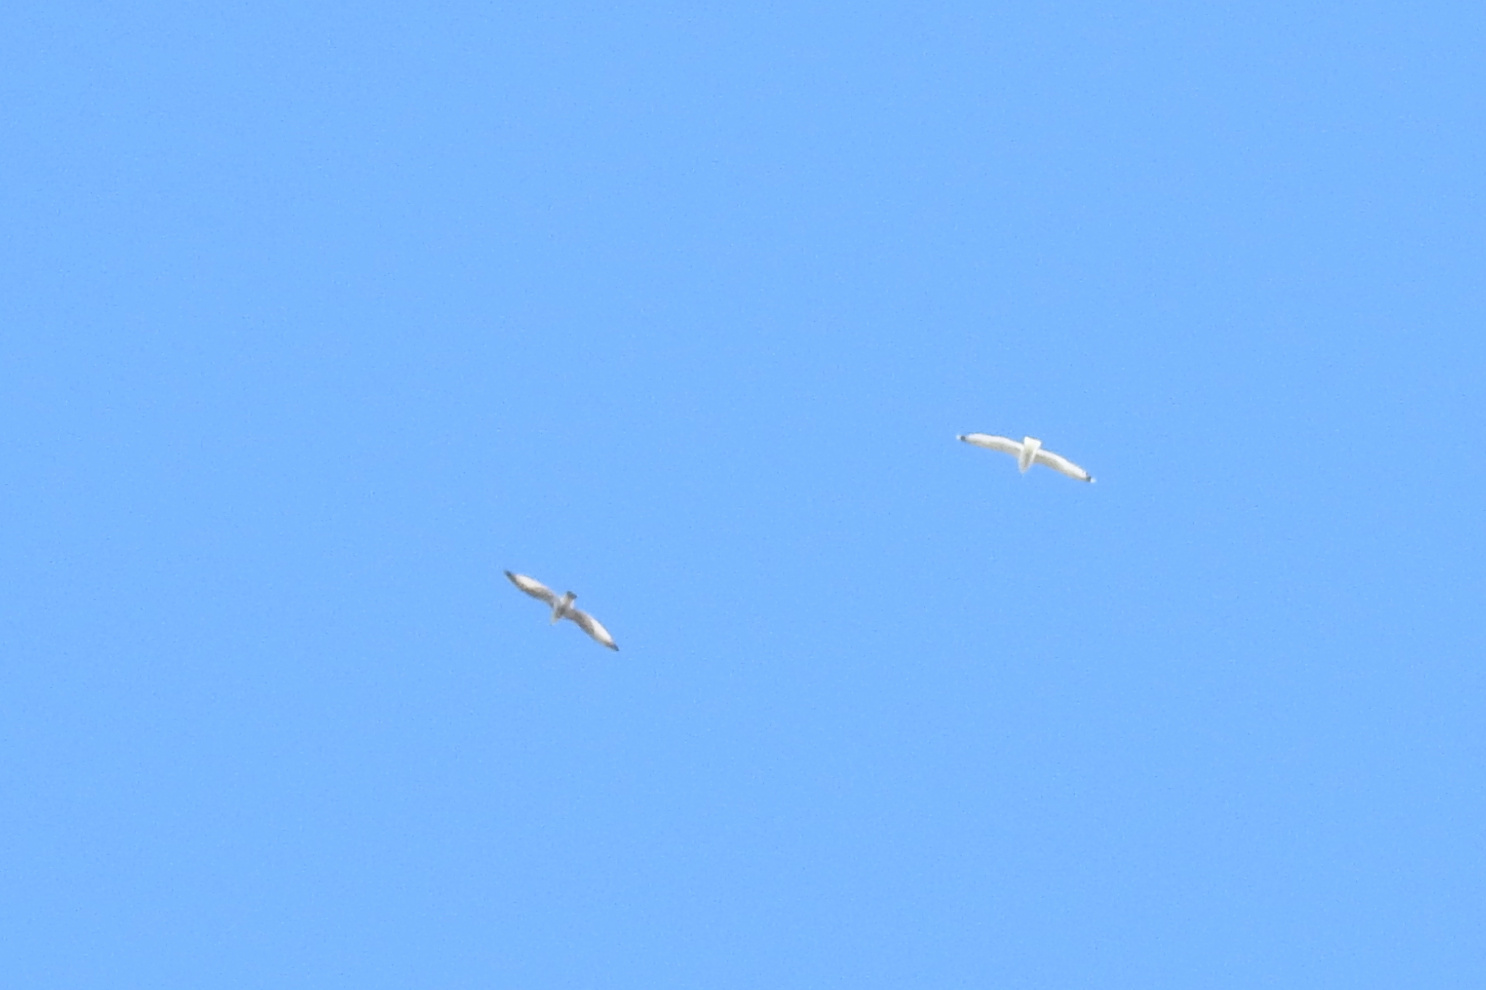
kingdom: Animalia
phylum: Chordata
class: Aves
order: Charadriiformes
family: Laridae
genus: Larus
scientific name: Larus
